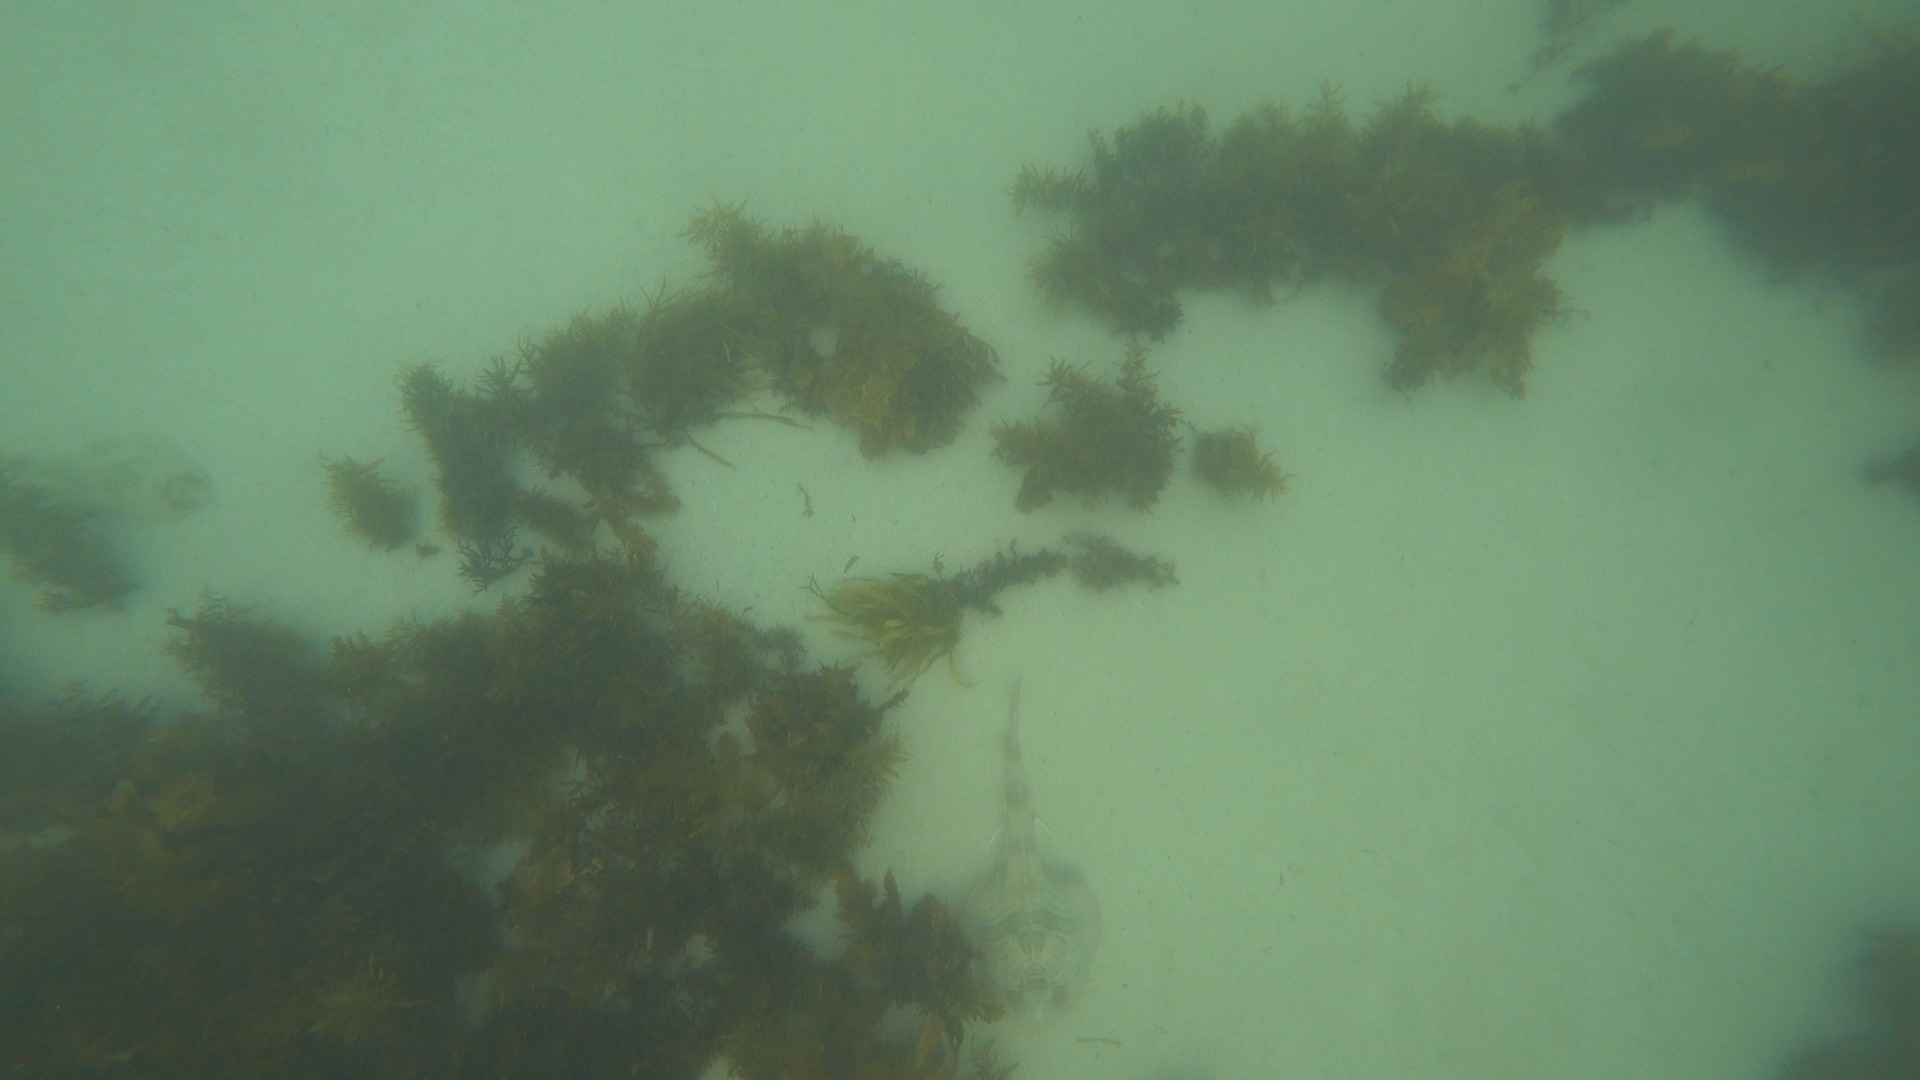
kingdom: Animalia
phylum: Chordata
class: Elasmobranchii
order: Rhinopristiformes
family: Rhinobatidae
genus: Trygonorrhina
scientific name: Trygonorrhina fasciata
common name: Southern fiddler
